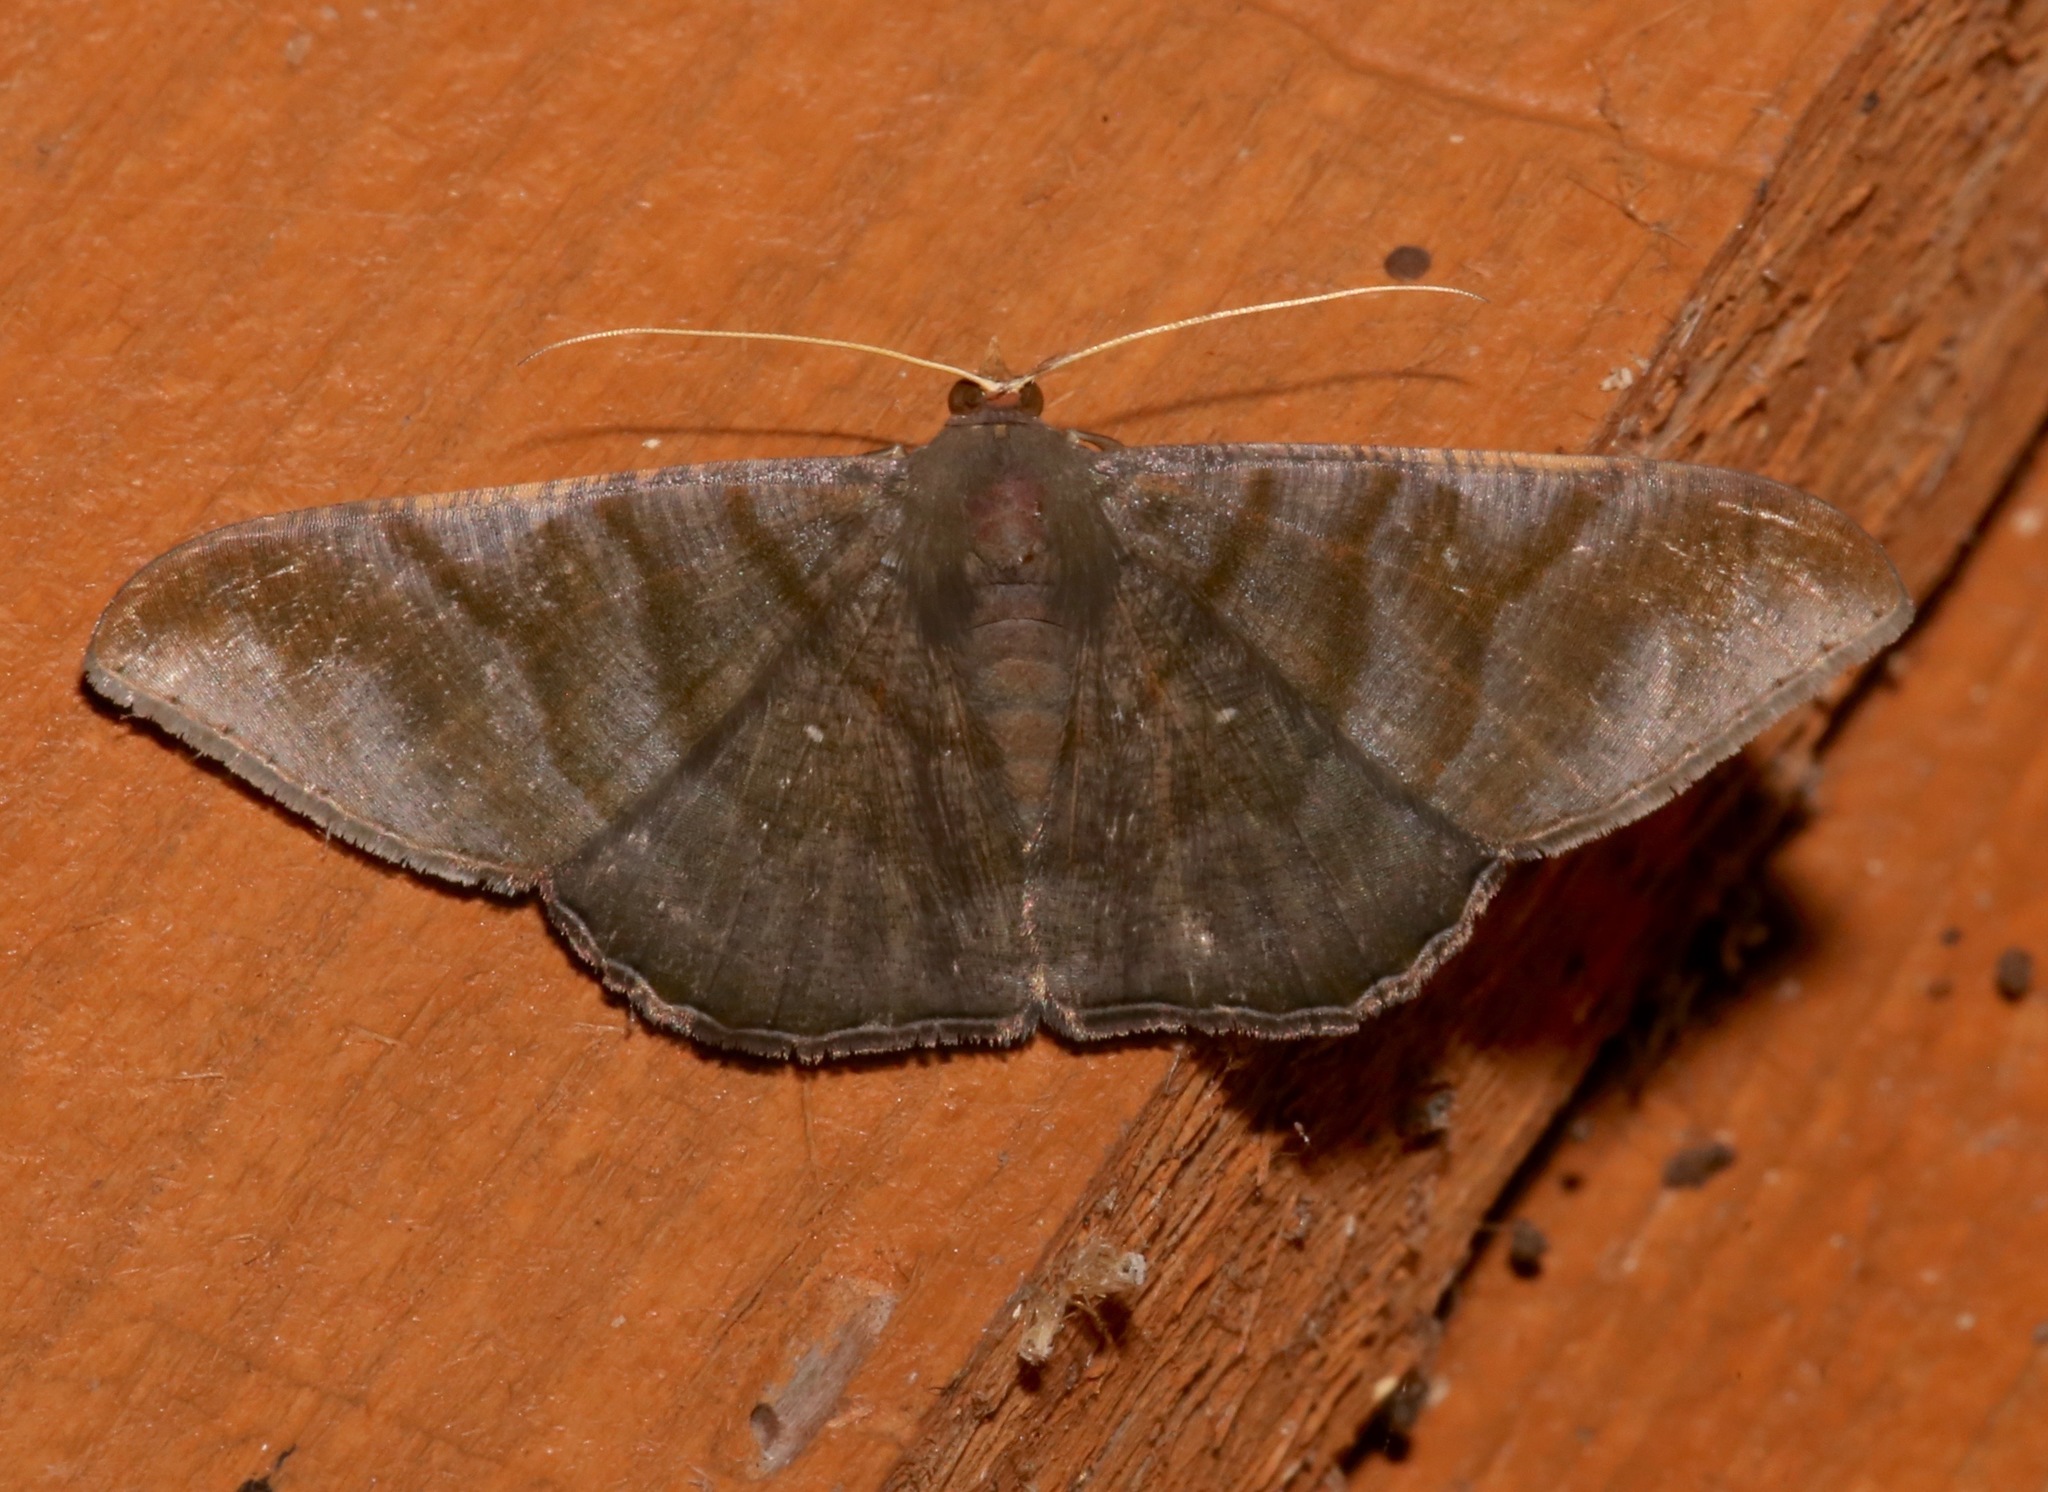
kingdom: Animalia
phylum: Arthropoda
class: Insecta
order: Lepidoptera
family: Geometridae
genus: Sphacelodes
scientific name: Sphacelodes vulneraria
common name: Looper moth
